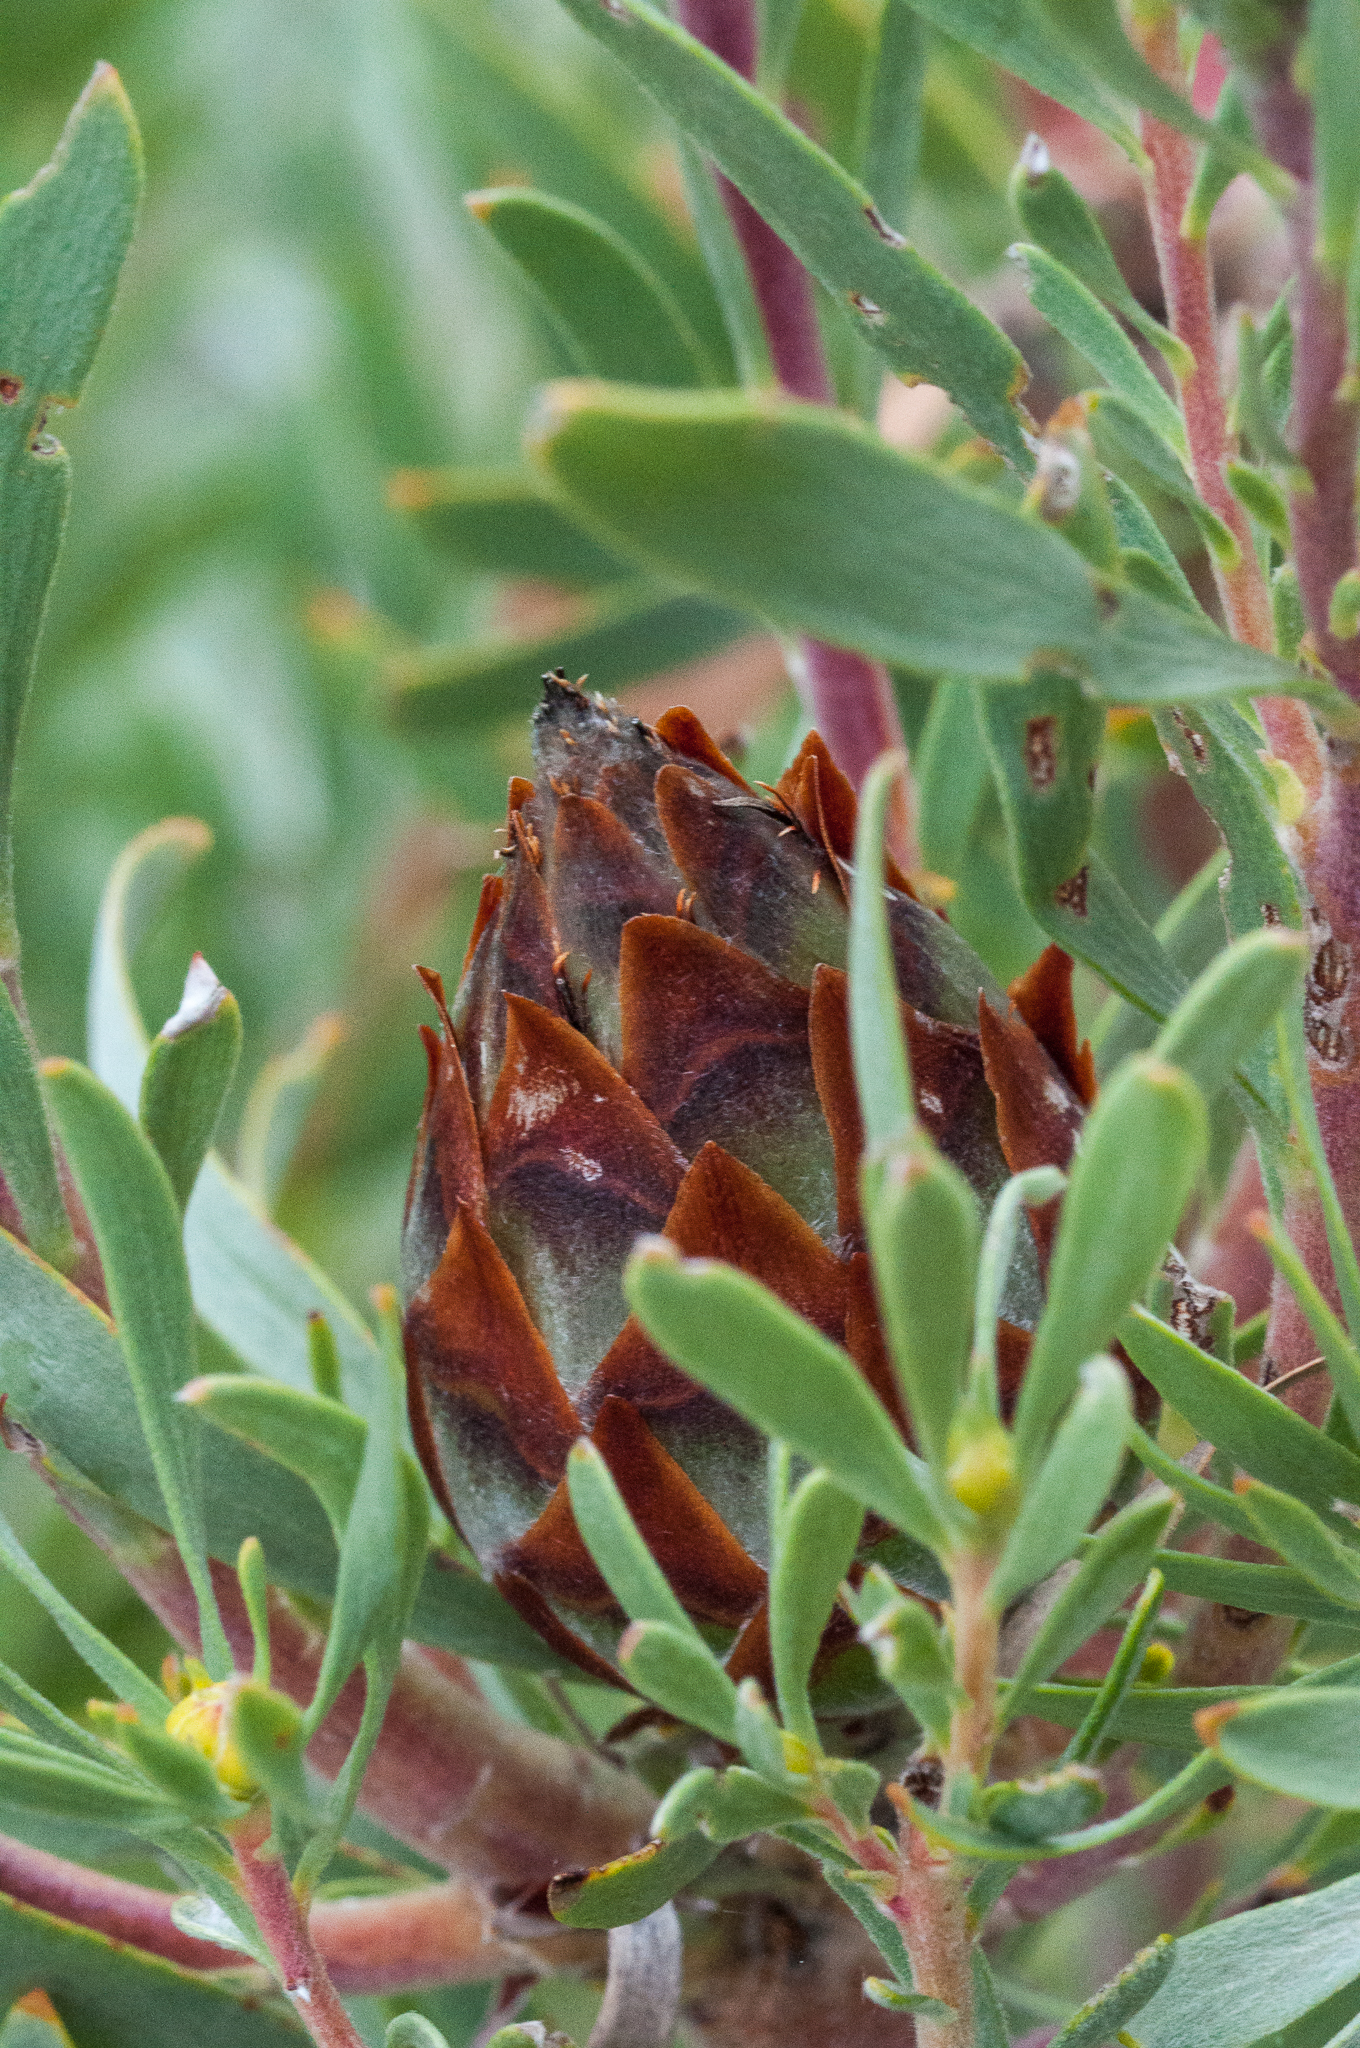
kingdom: Plantae
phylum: Tracheophyta
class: Magnoliopsida
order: Proteales
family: Proteaceae
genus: Leucadendron
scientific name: Leucadendron rubrum
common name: Spinning top
